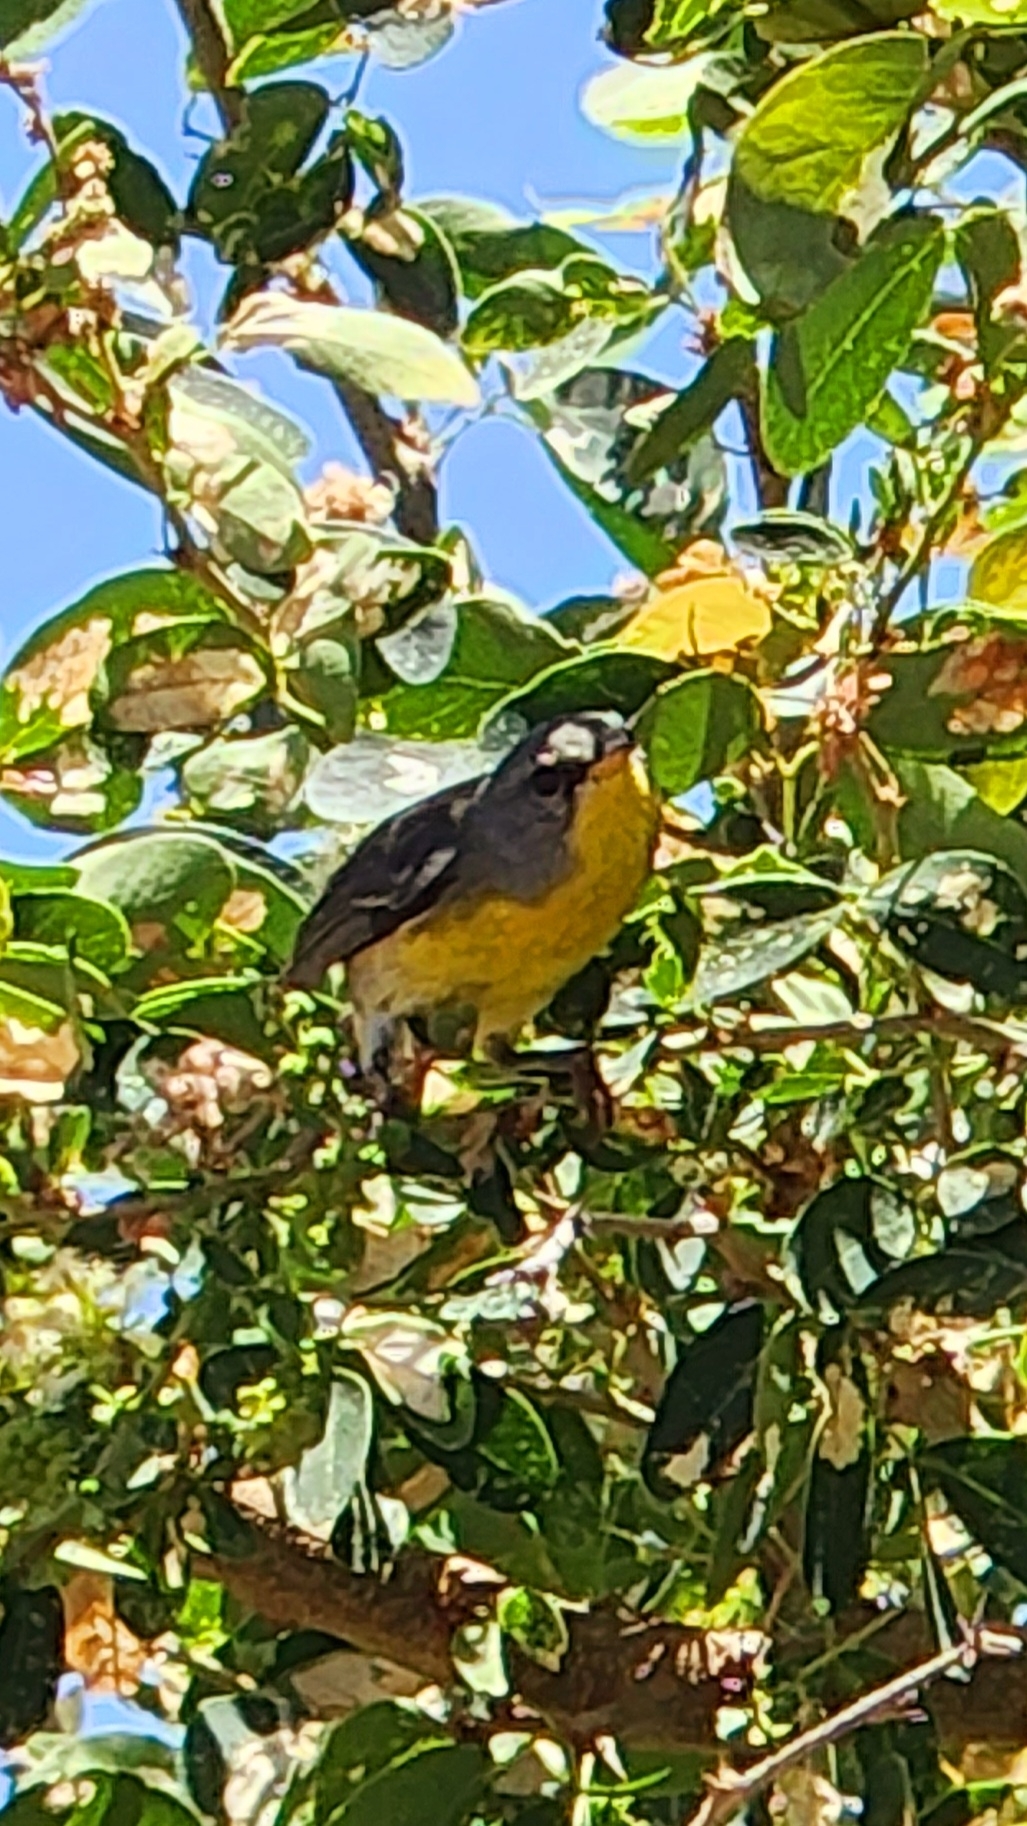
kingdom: Animalia
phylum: Chordata
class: Aves
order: Passeriformes
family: Parulidae
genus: Setophaga
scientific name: Setophaga pitiayumi
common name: Tropical parula
